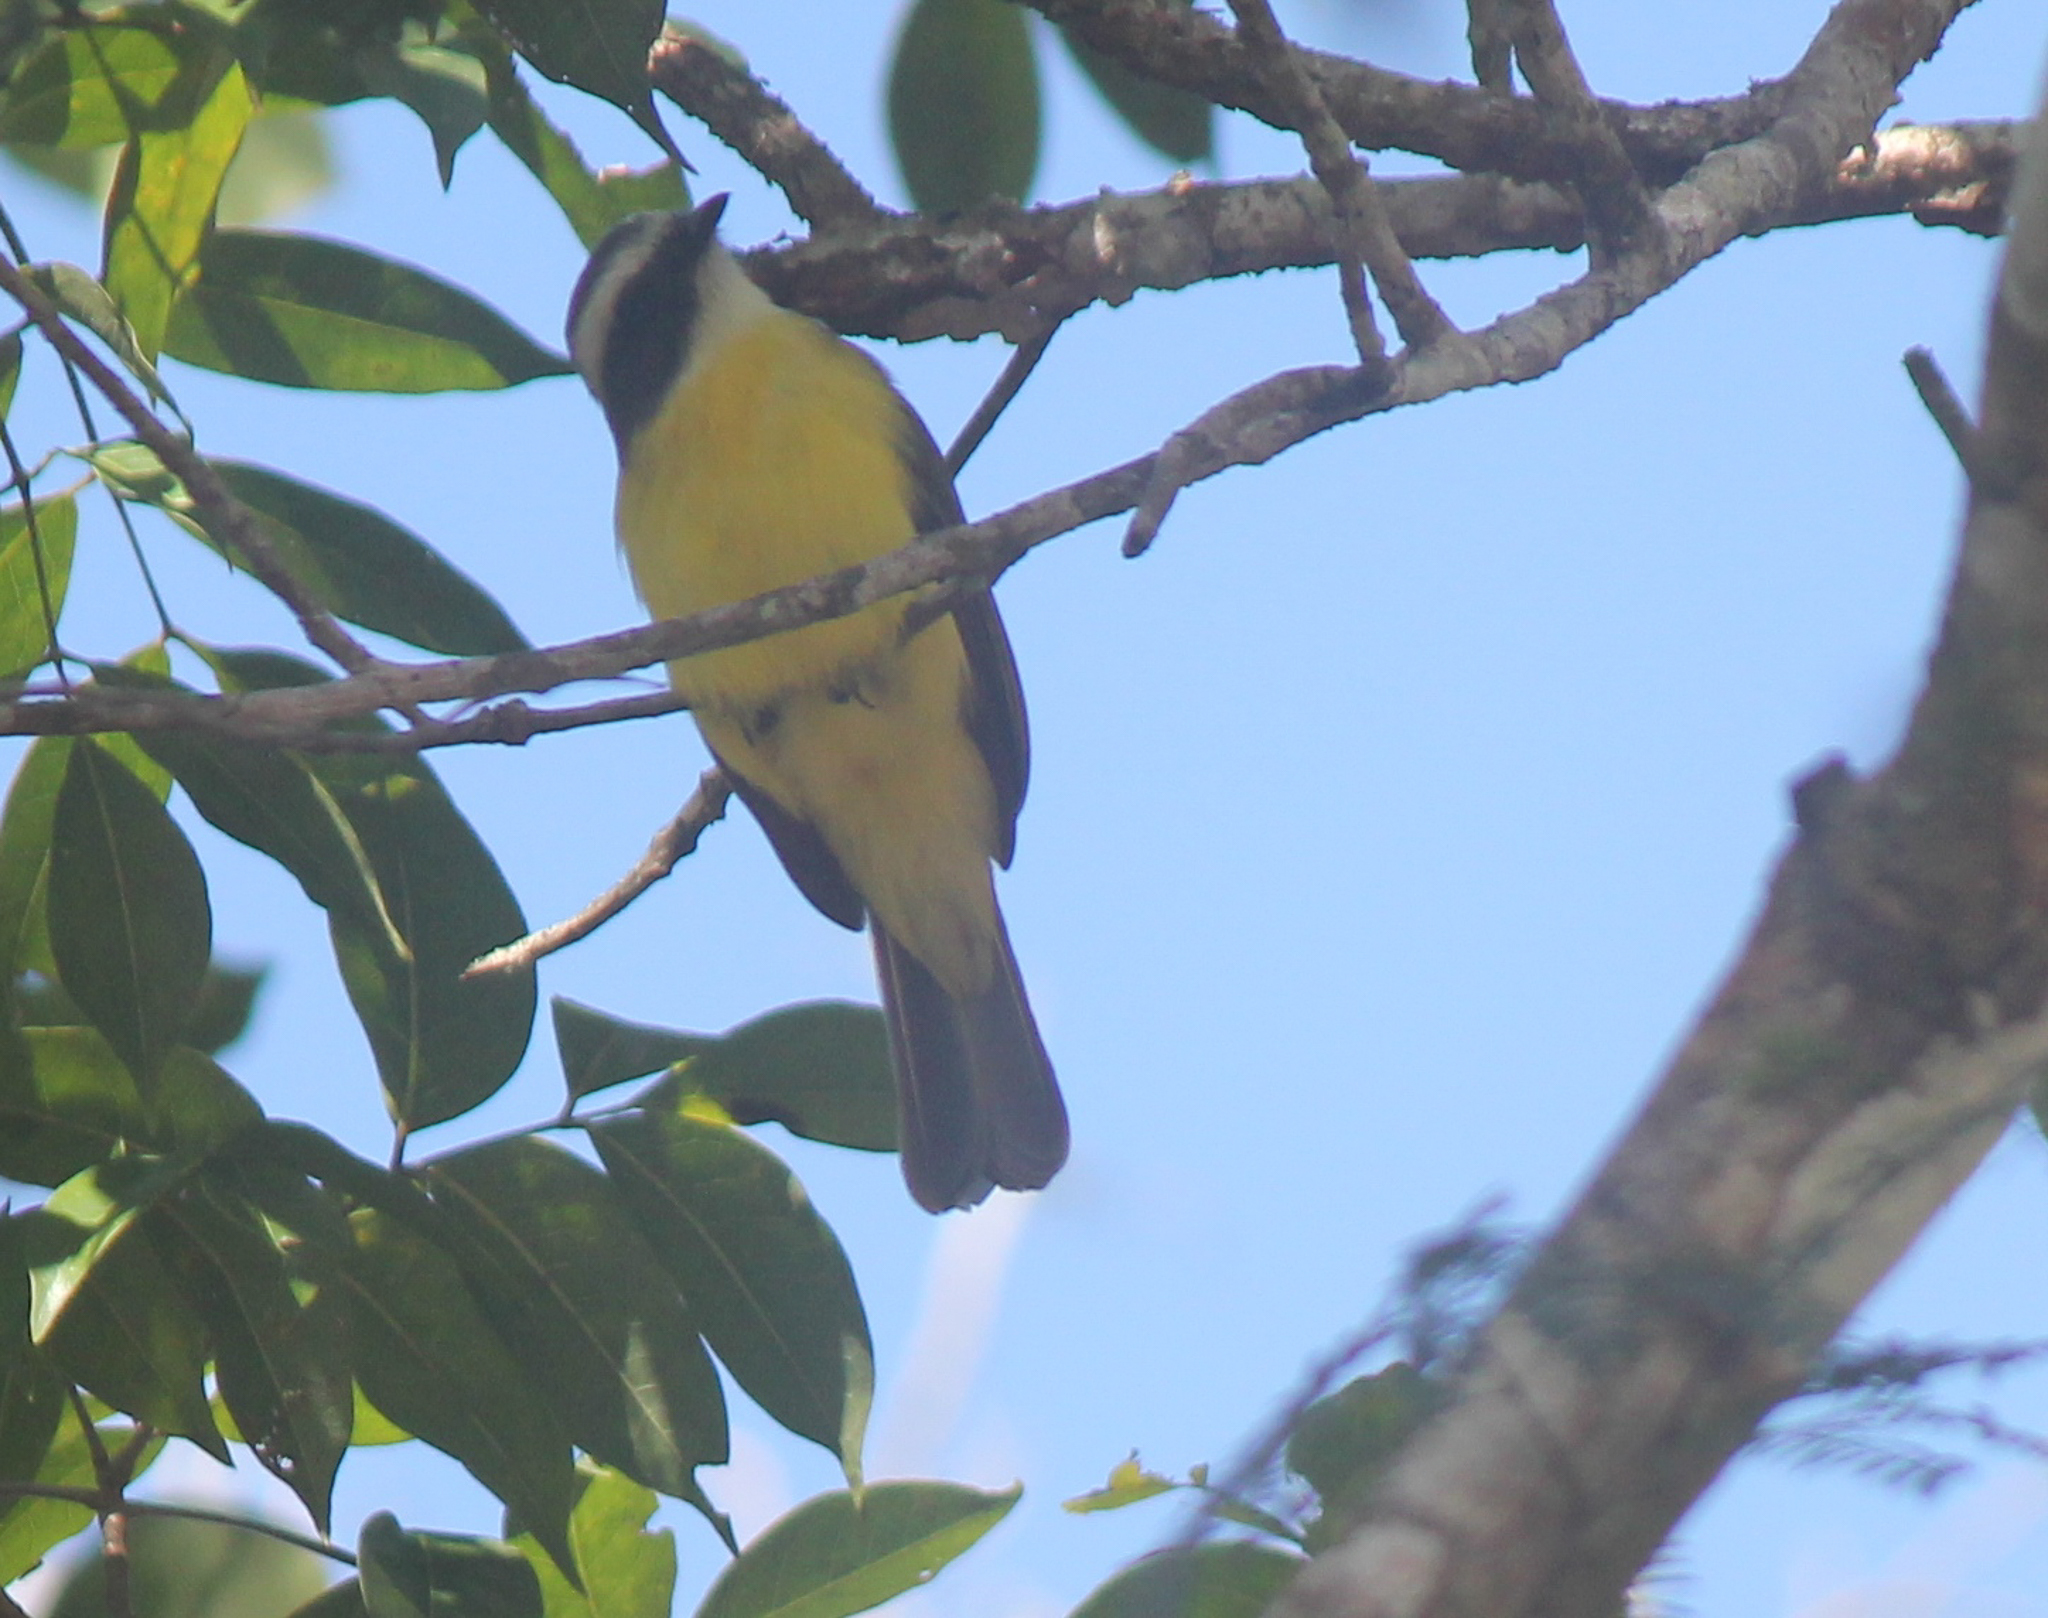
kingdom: Animalia
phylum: Chordata
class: Aves
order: Passeriformes
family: Tyrannidae
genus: Myiozetetes
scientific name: Myiozetetes similis
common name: Social flycatcher
